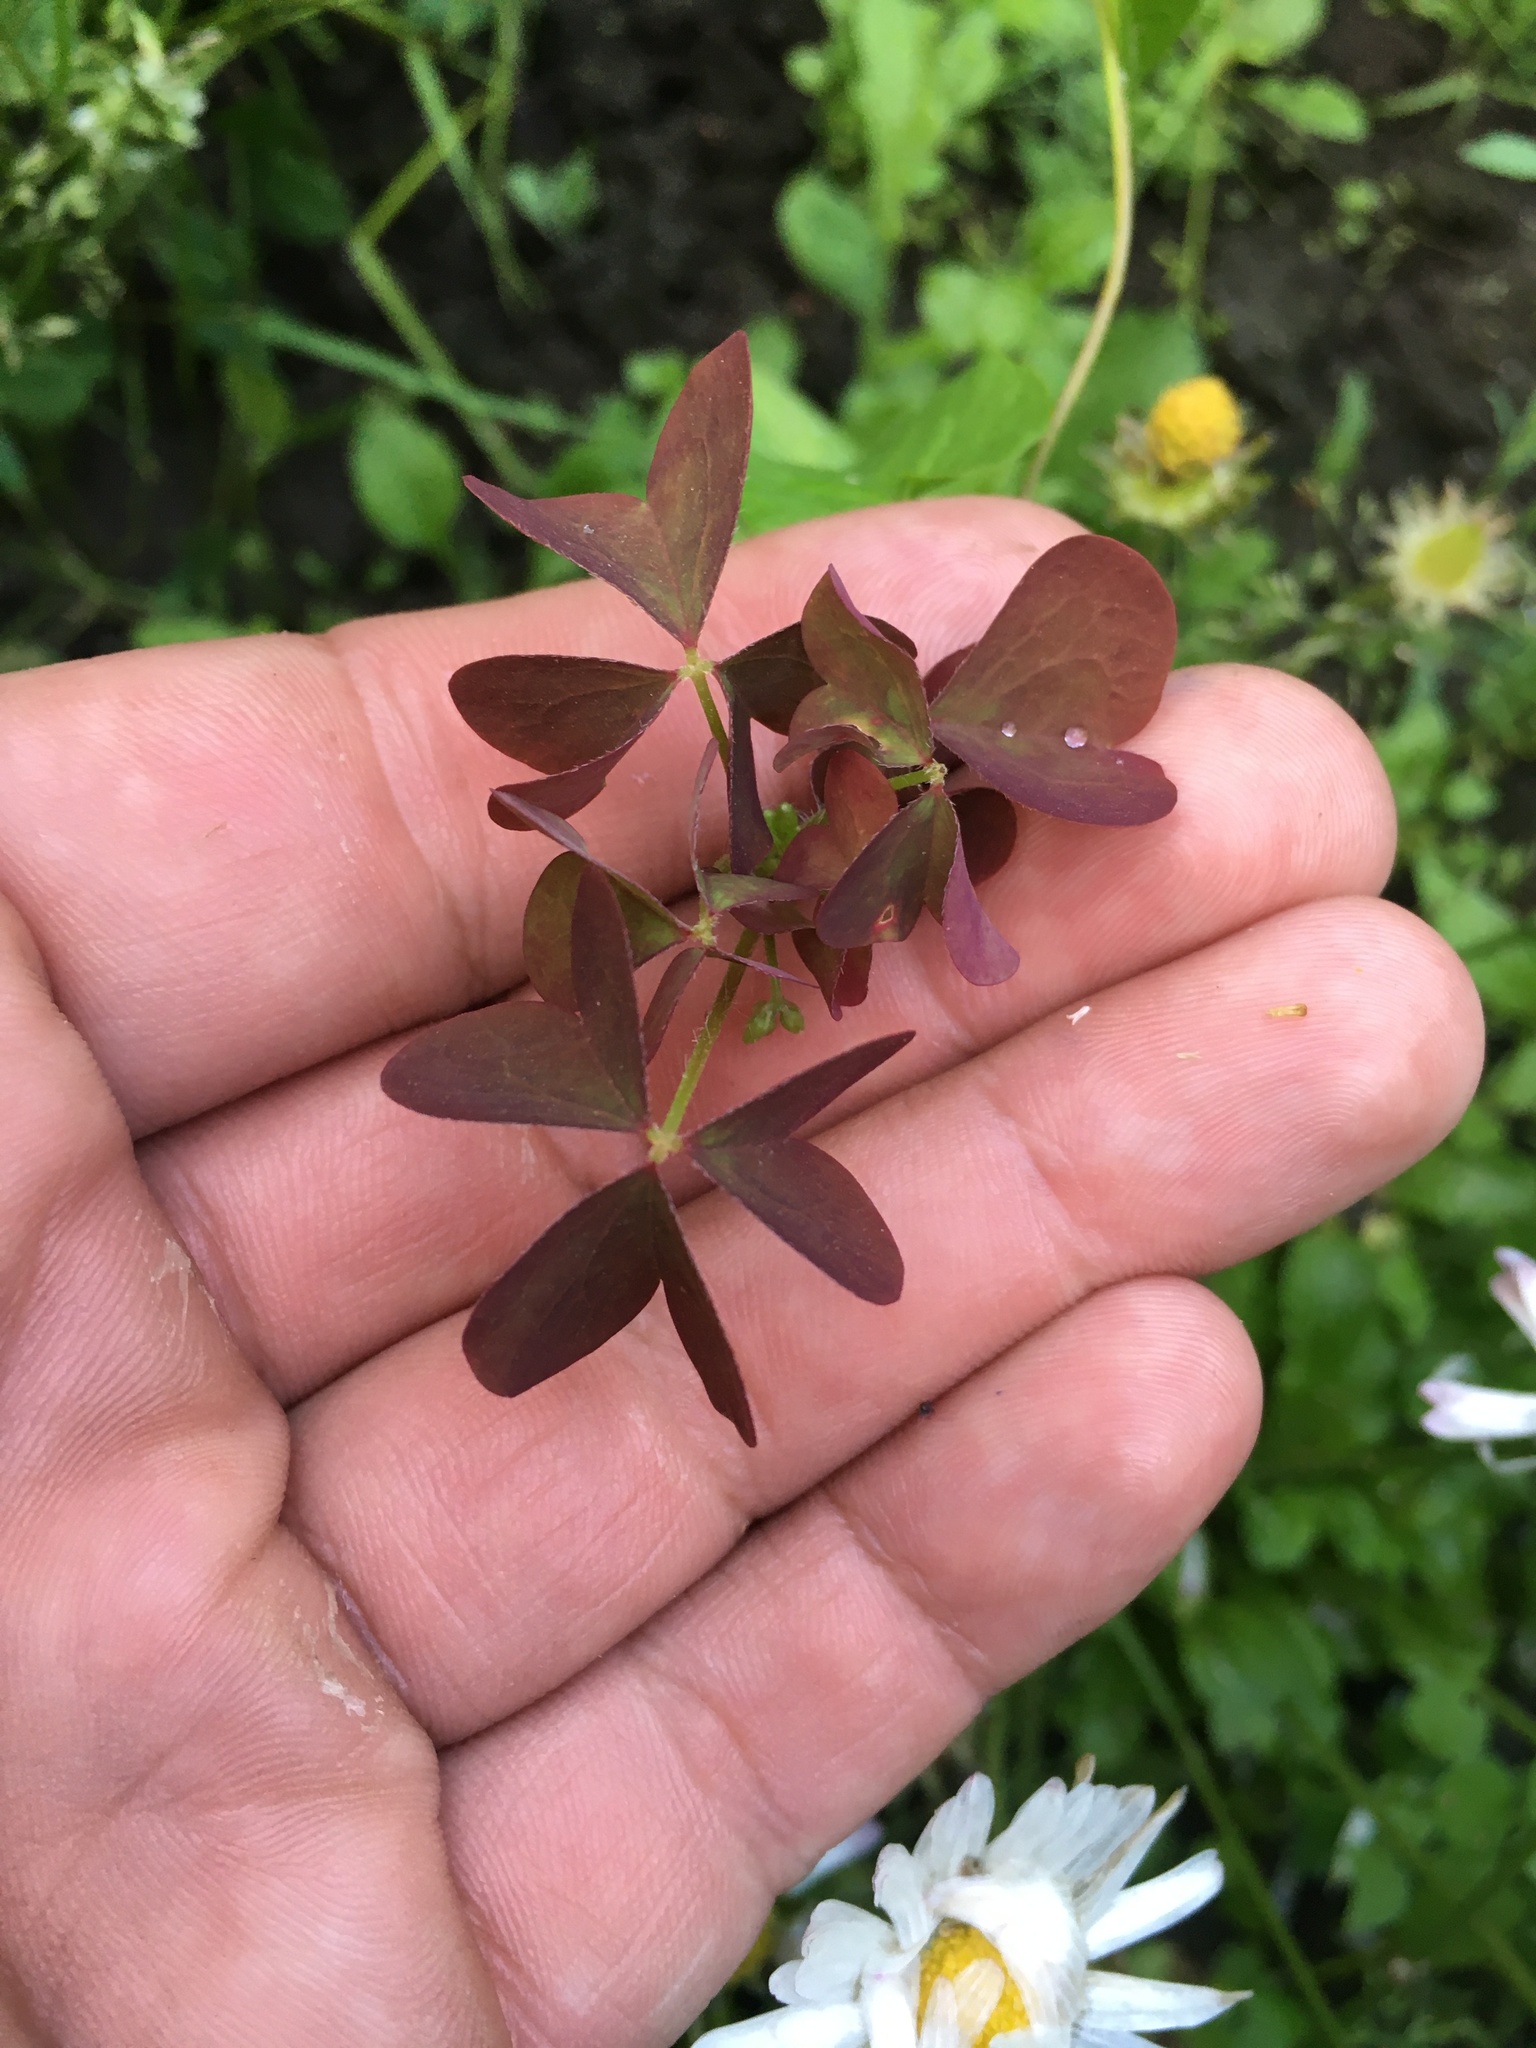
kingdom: Plantae
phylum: Tracheophyta
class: Magnoliopsida
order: Oxalidales
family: Oxalidaceae
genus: Oxalis
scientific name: Oxalis stricta
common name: Upright yellow-sorrel
